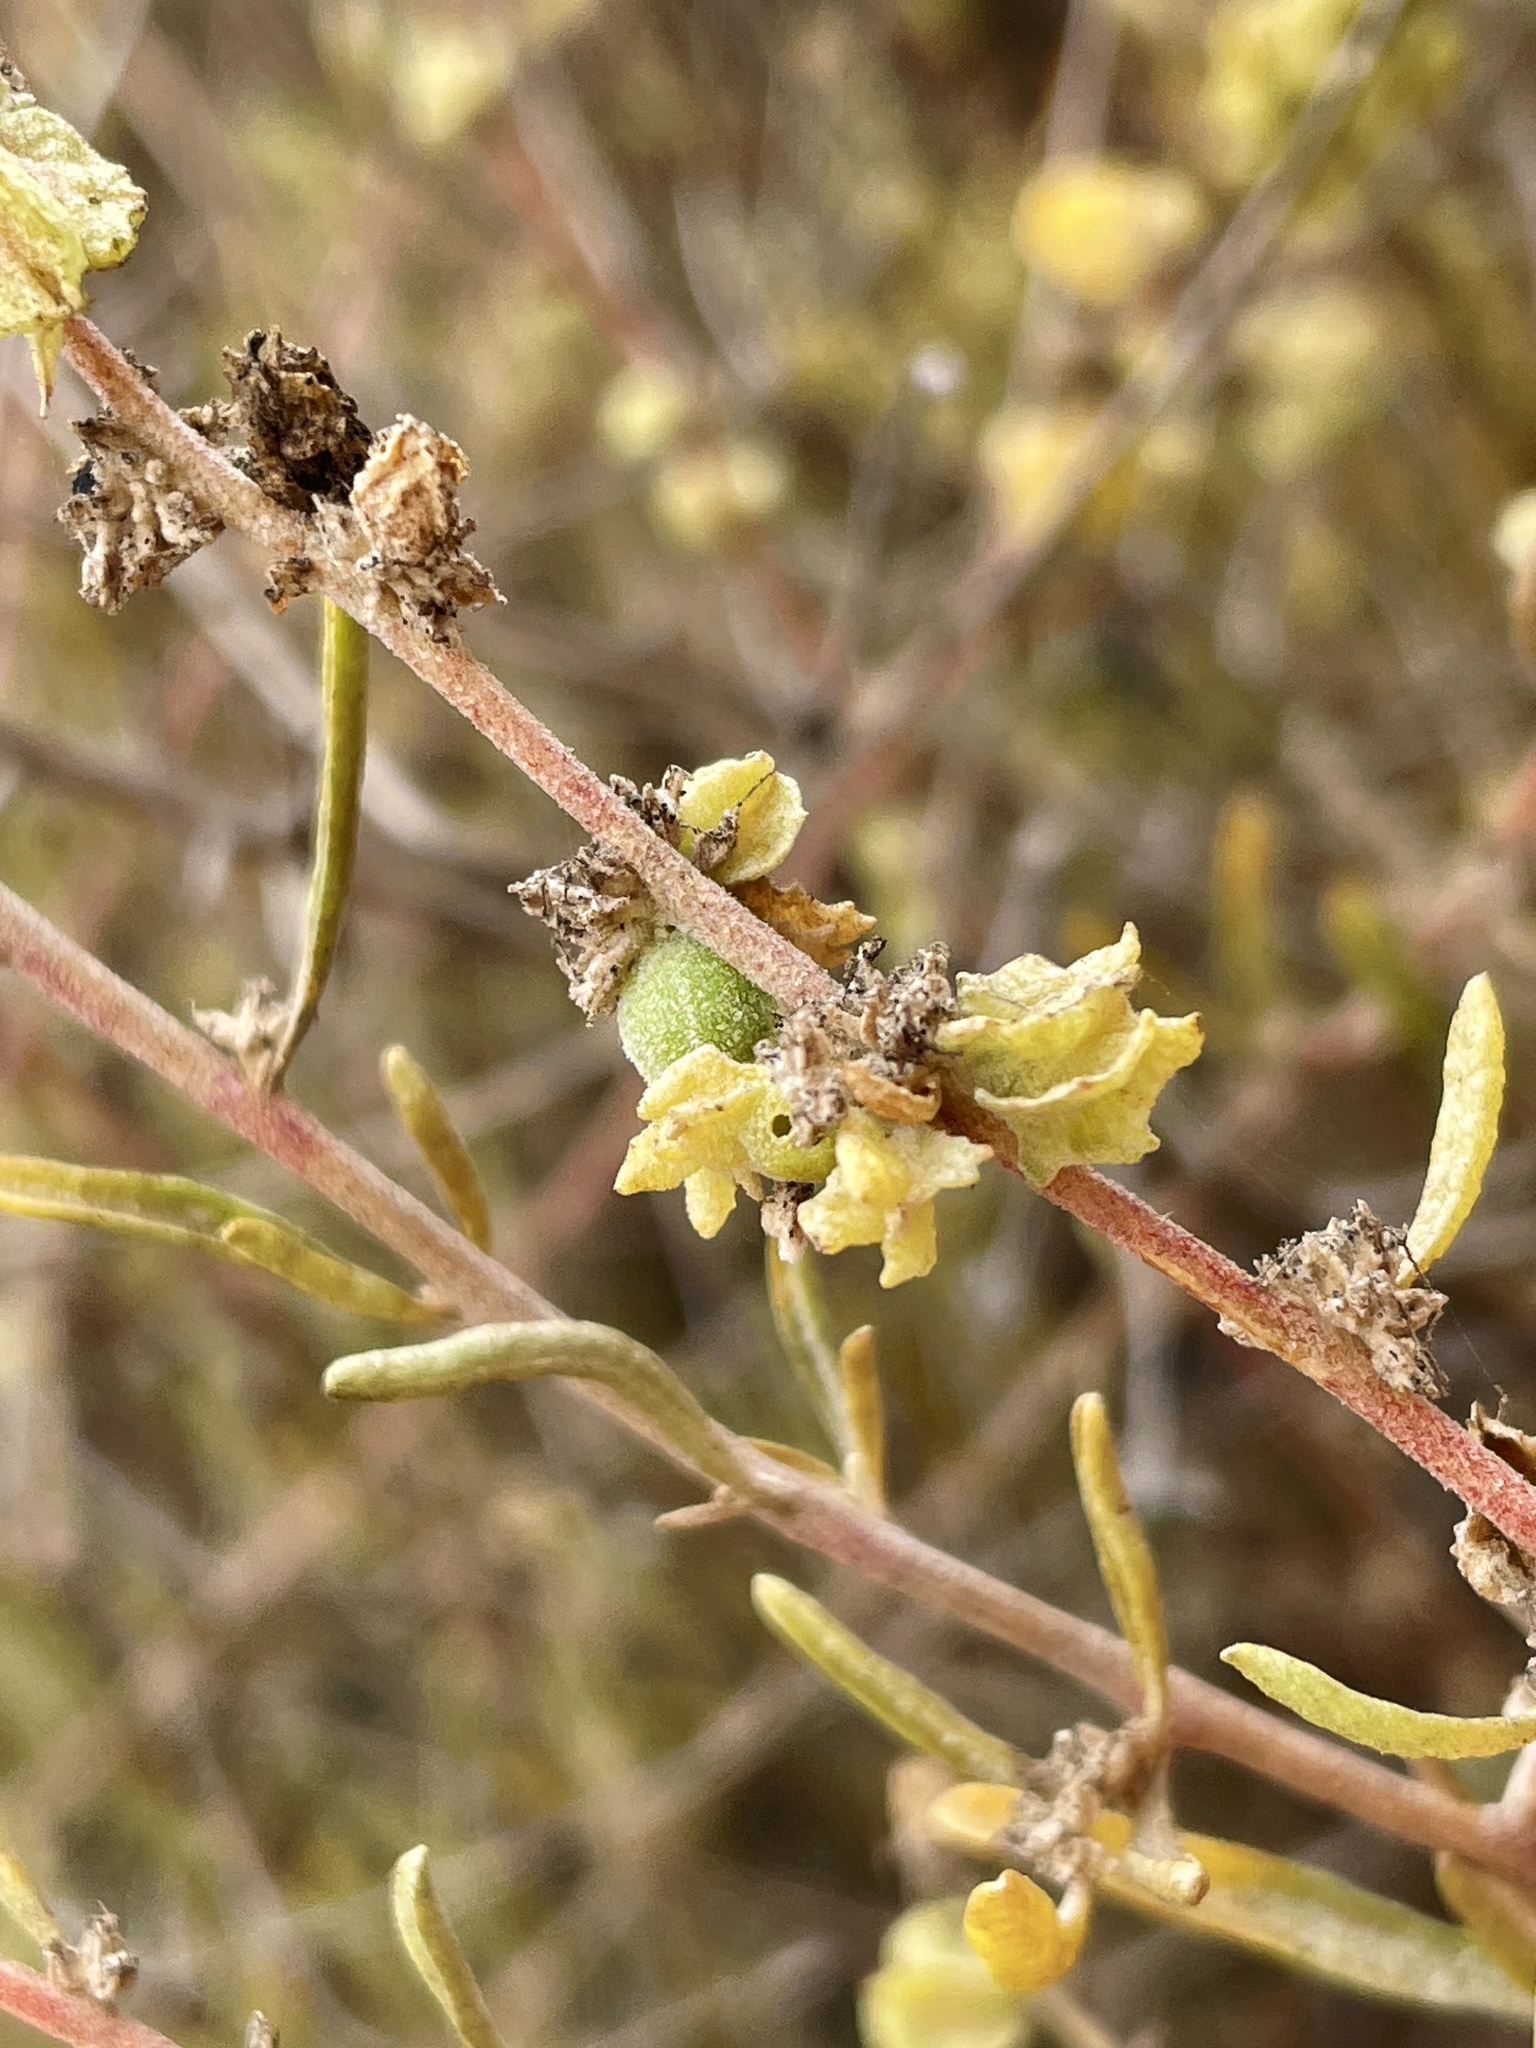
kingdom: Animalia
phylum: Arthropoda
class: Insecta
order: Diptera
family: Cecidomyiidae
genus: Asphondylia
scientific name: Asphondylia caudicis
